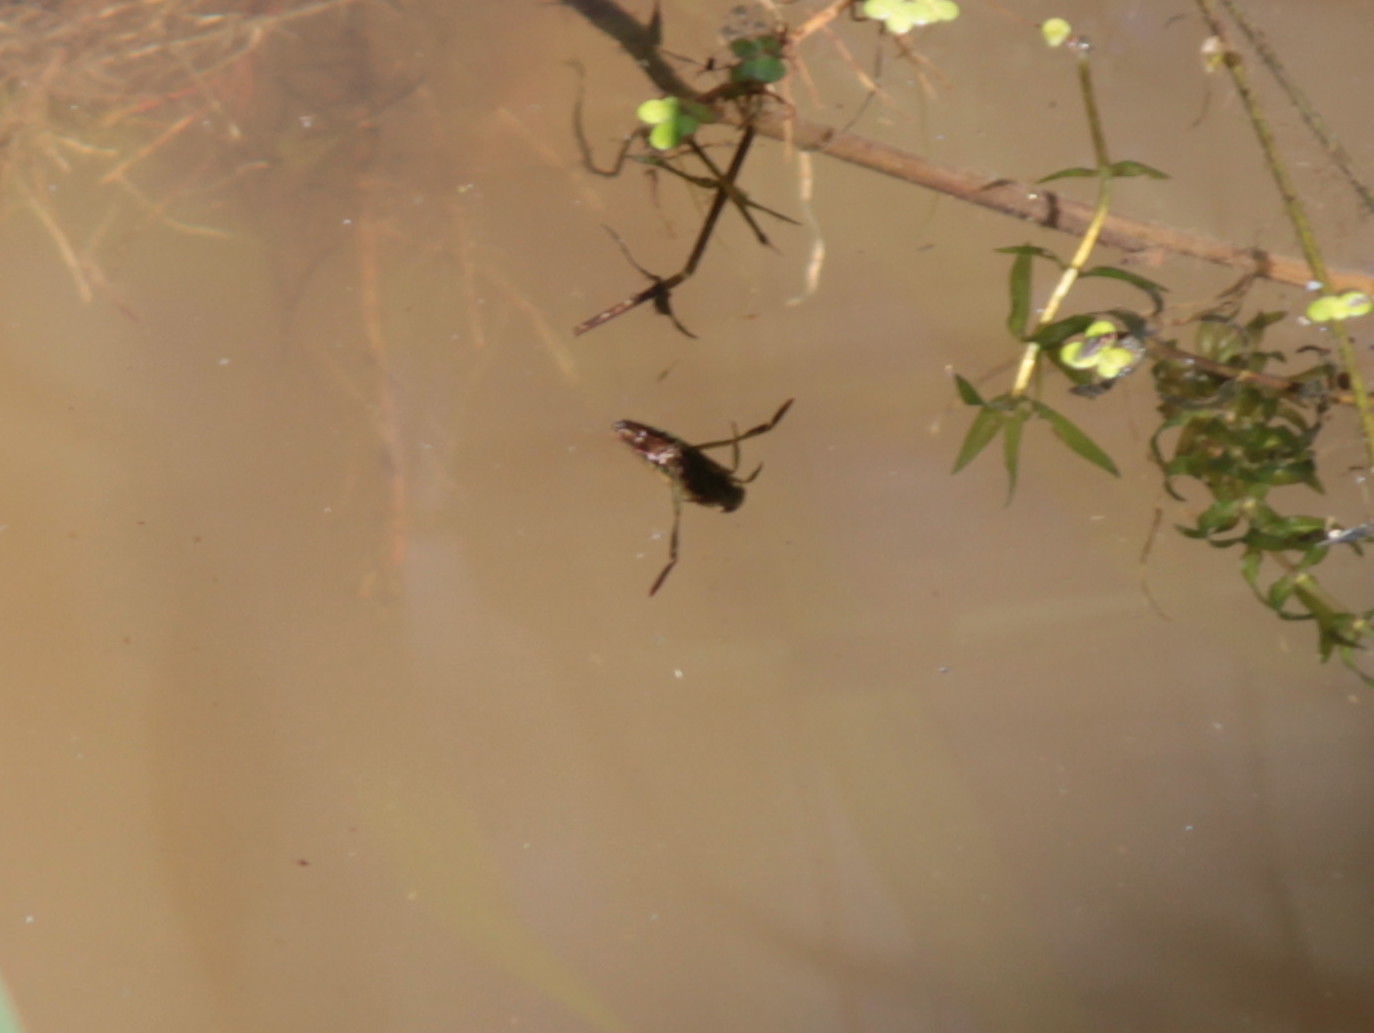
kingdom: Animalia
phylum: Arthropoda
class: Insecta
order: Hemiptera
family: Notonectidae
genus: Notonecta
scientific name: Notonecta
